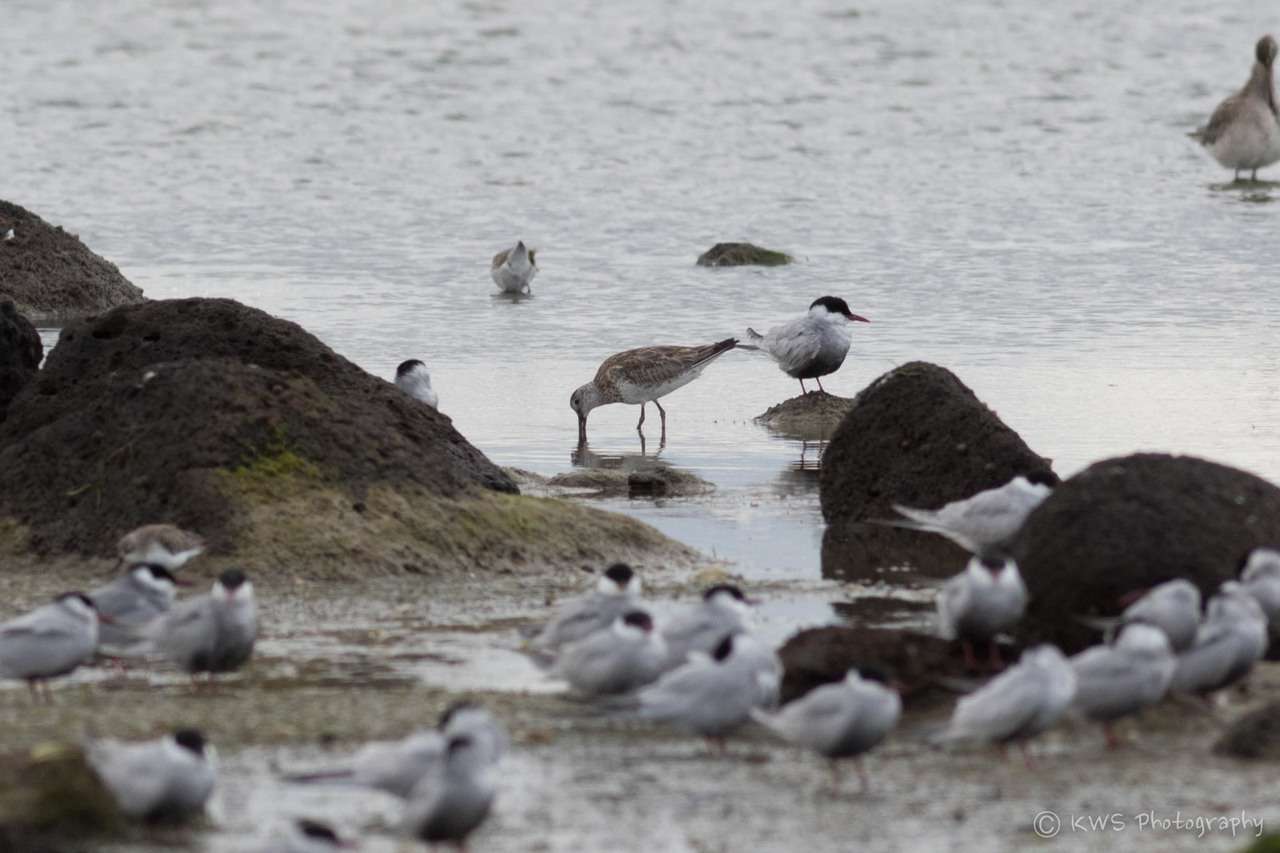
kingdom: Animalia
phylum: Chordata
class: Aves
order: Charadriiformes
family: Scolopacidae
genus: Calidris
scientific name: Calidris tenuirostris
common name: Great knot
